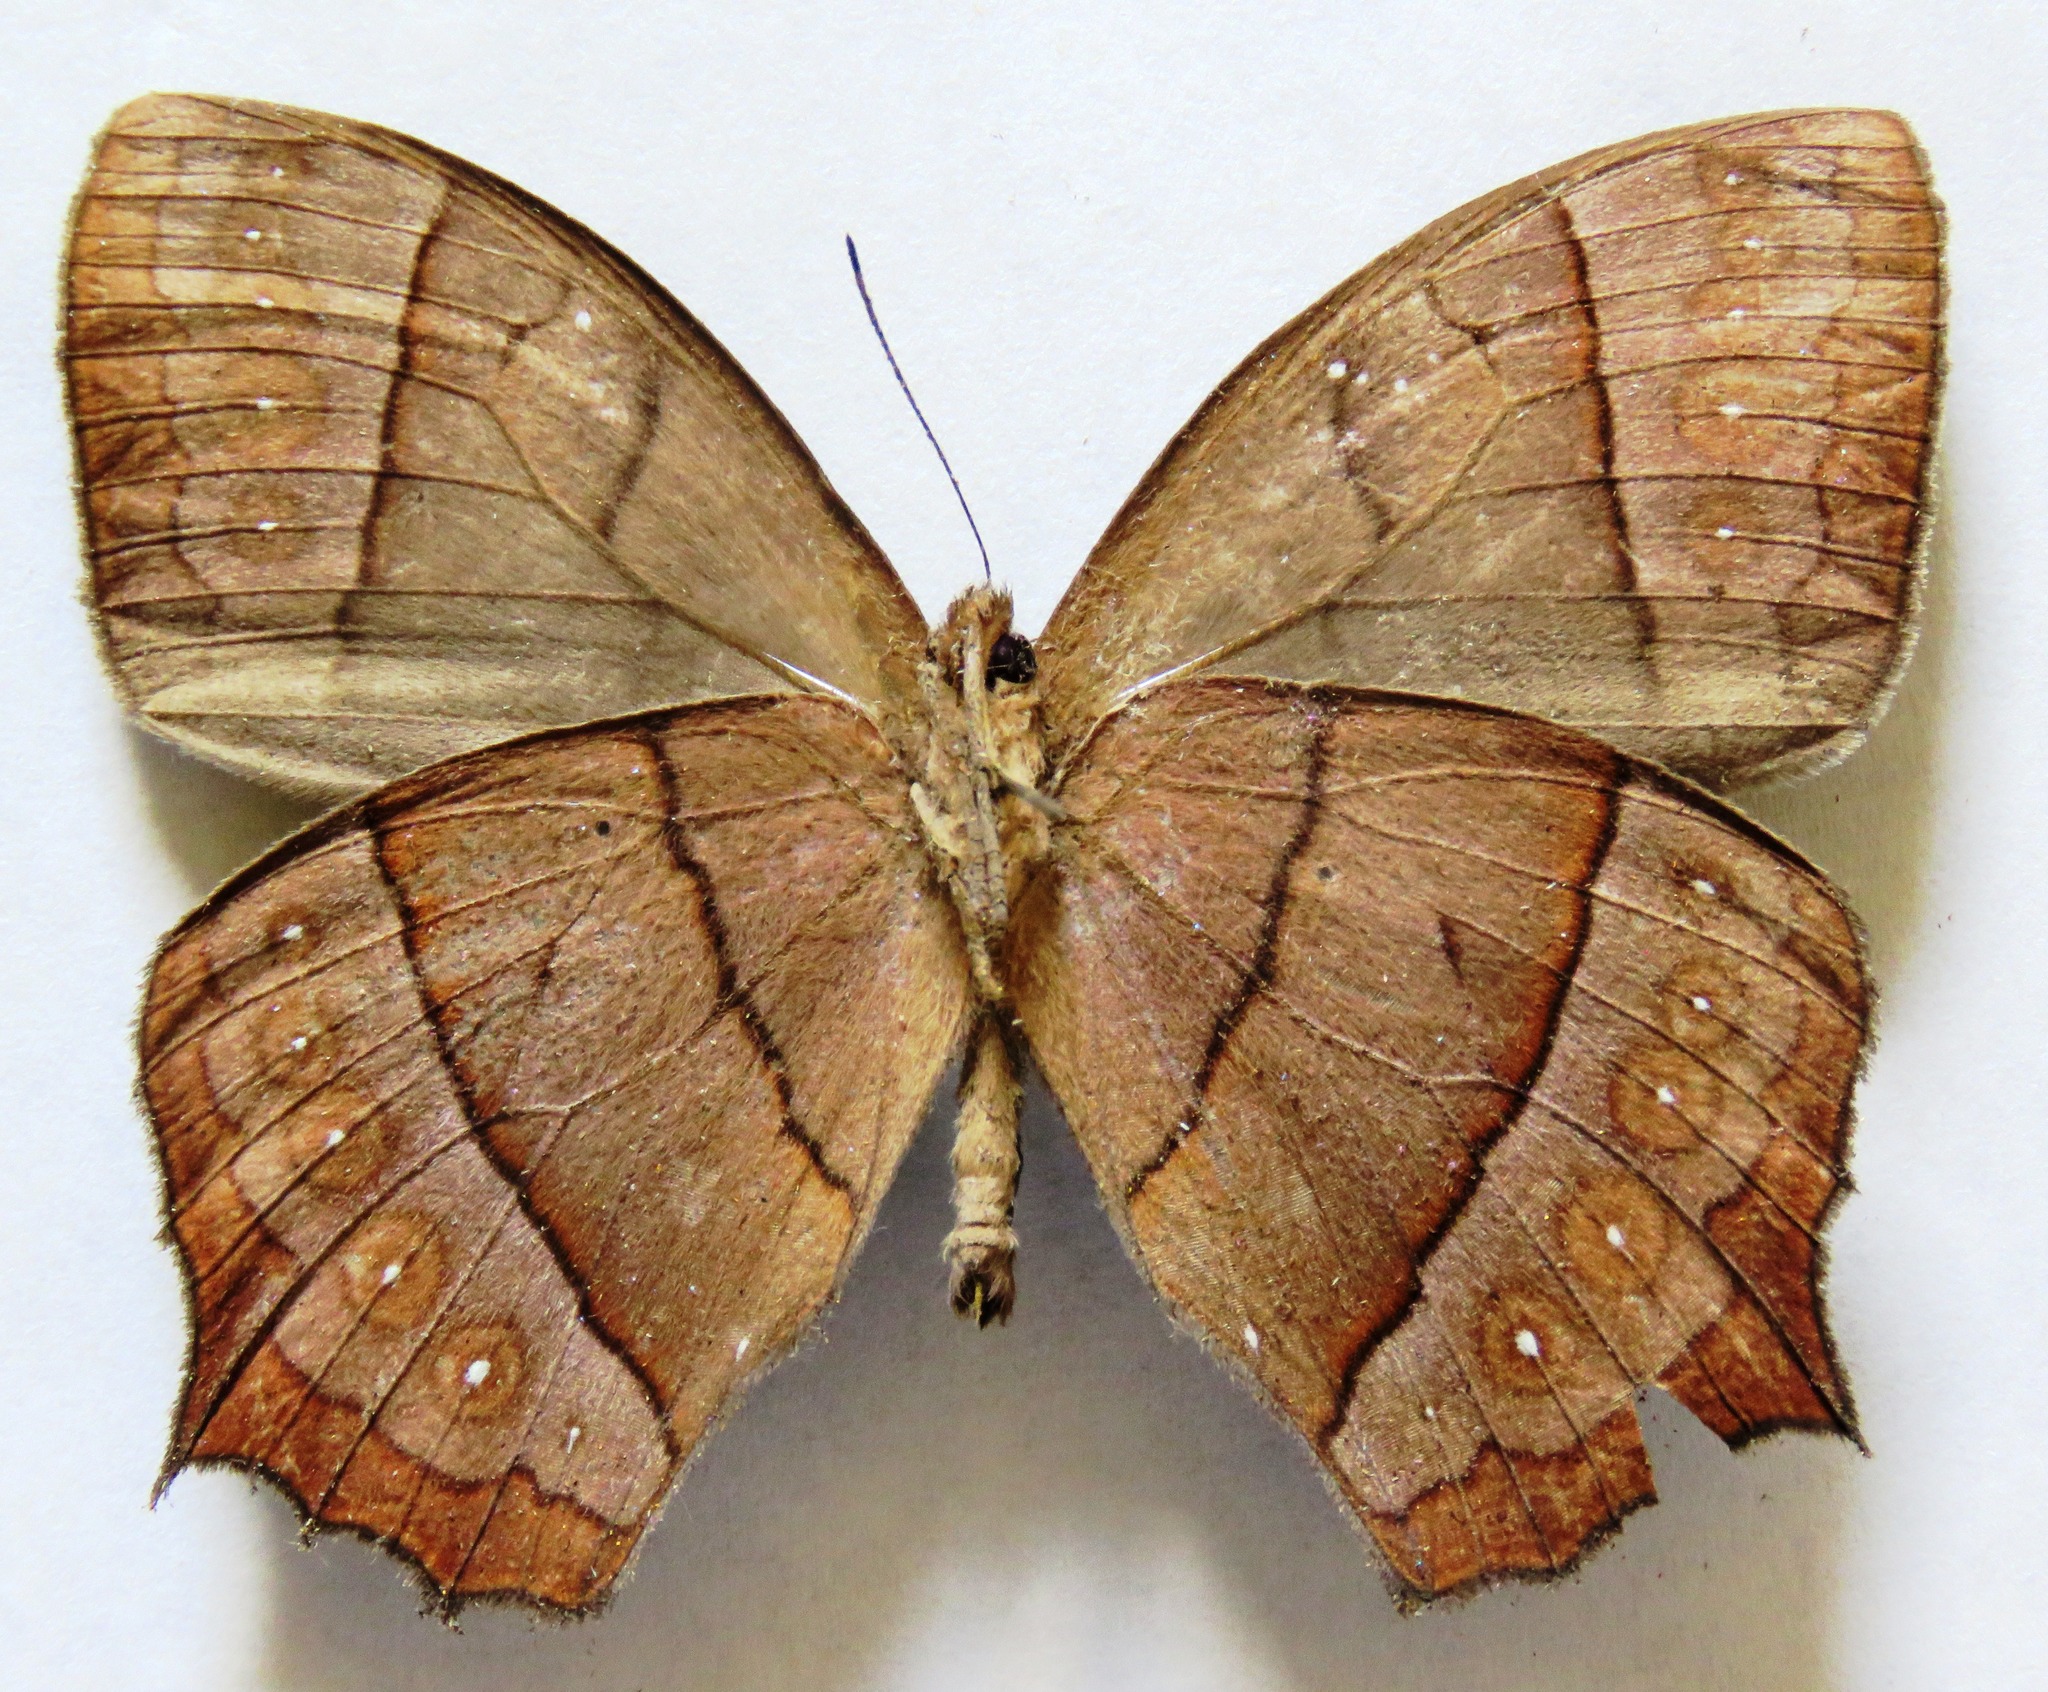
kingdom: Animalia
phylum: Arthropoda
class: Insecta
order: Lepidoptera
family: Nymphalidae
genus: Taygetis
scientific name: Taygetis virgilia
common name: Stub-tailed satyr
